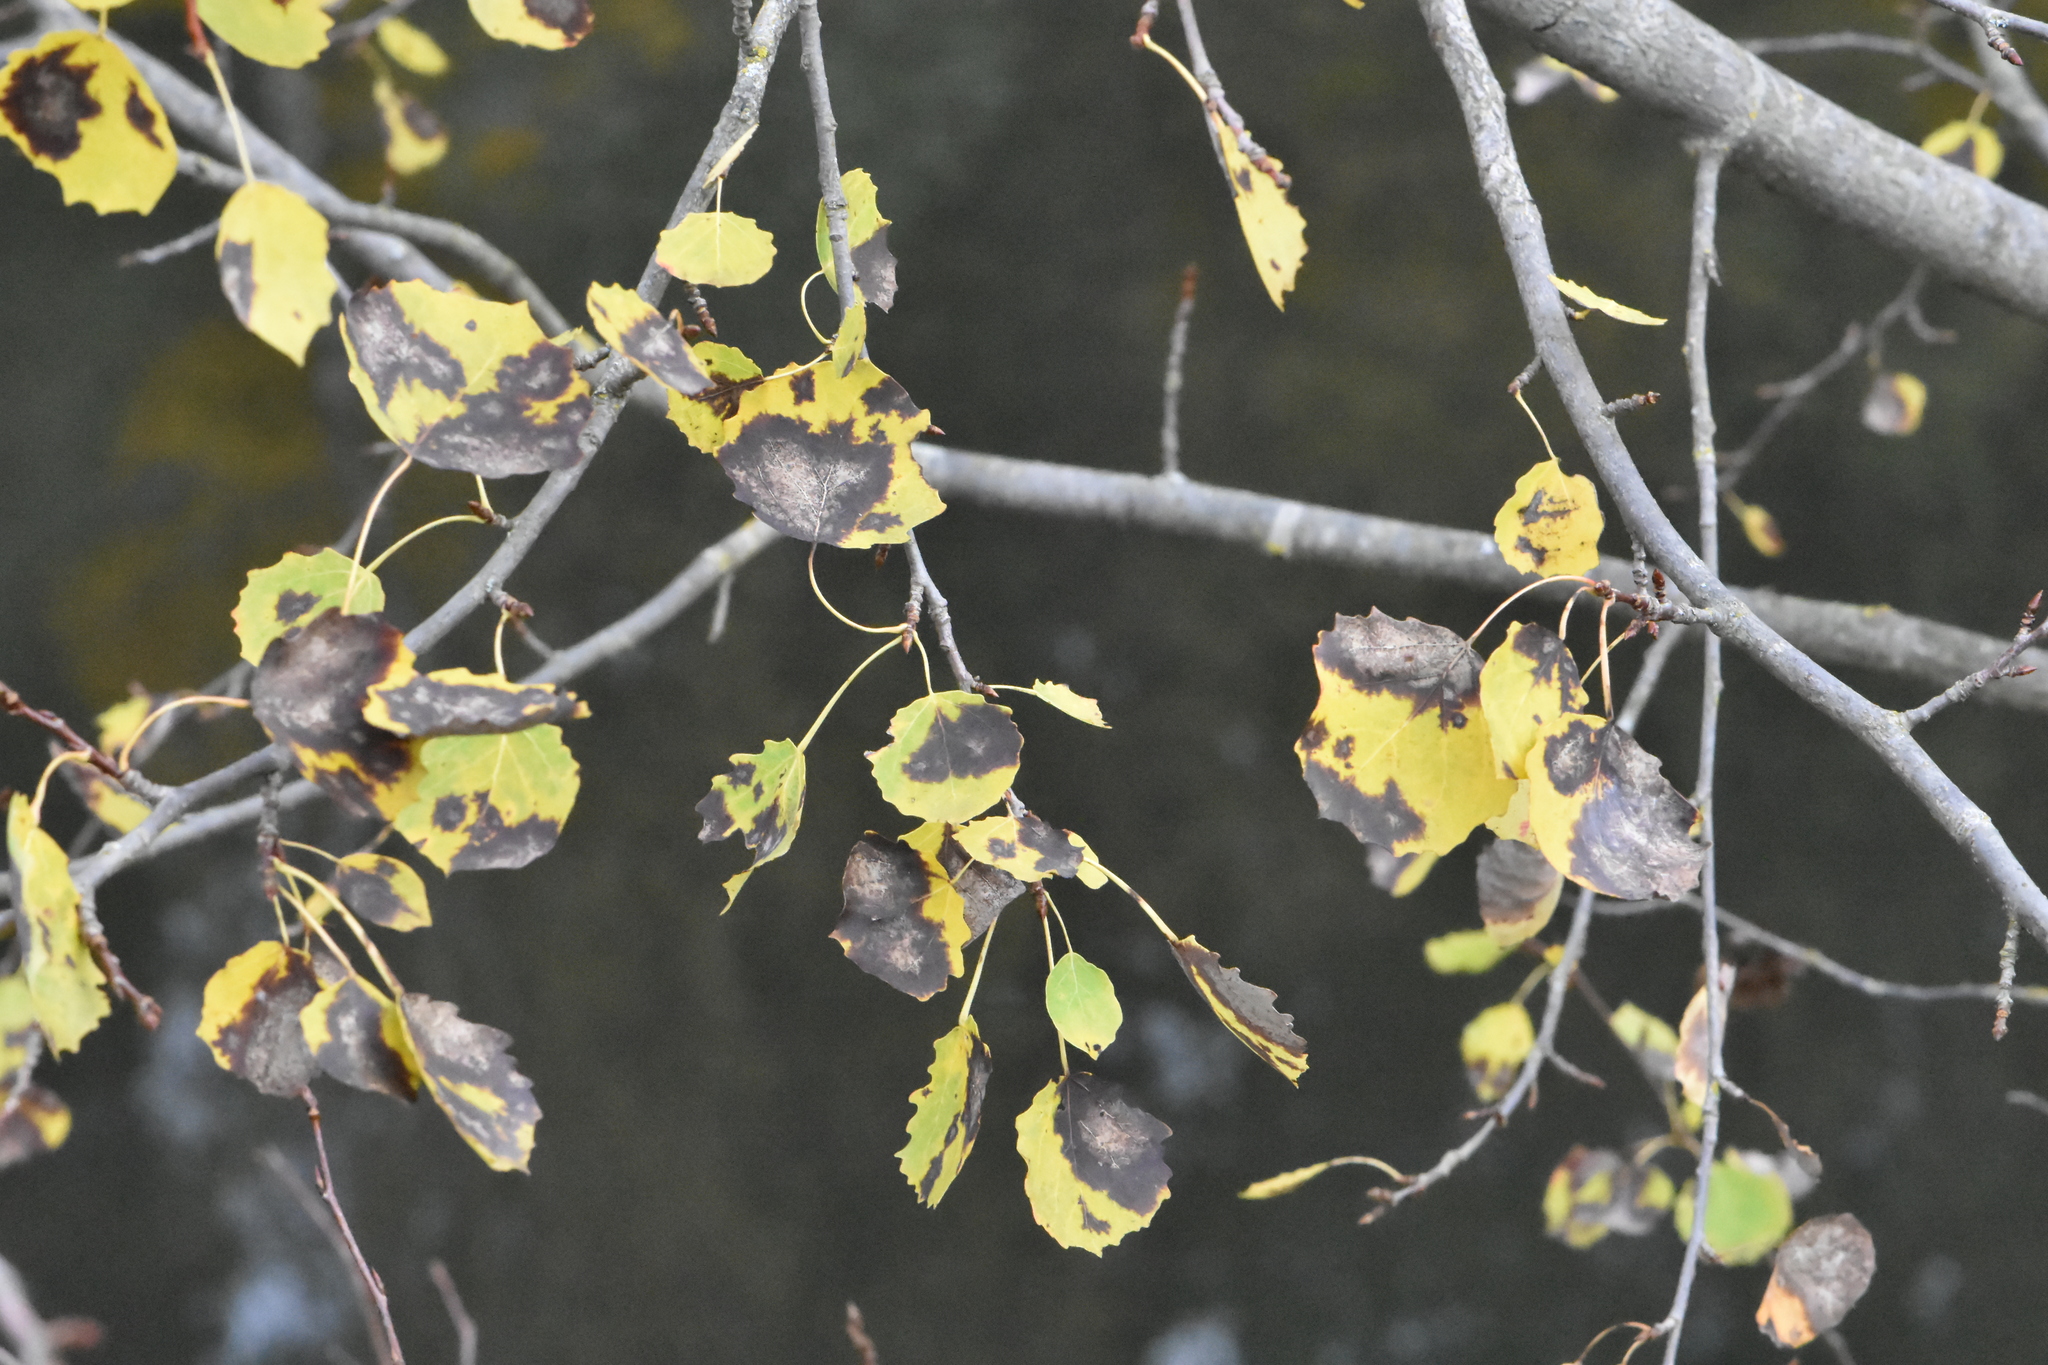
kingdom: Plantae
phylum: Tracheophyta
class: Magnoliopsida
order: Malpighiales
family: Salicaceae
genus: Populus
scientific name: Populus tremula
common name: European aspen
